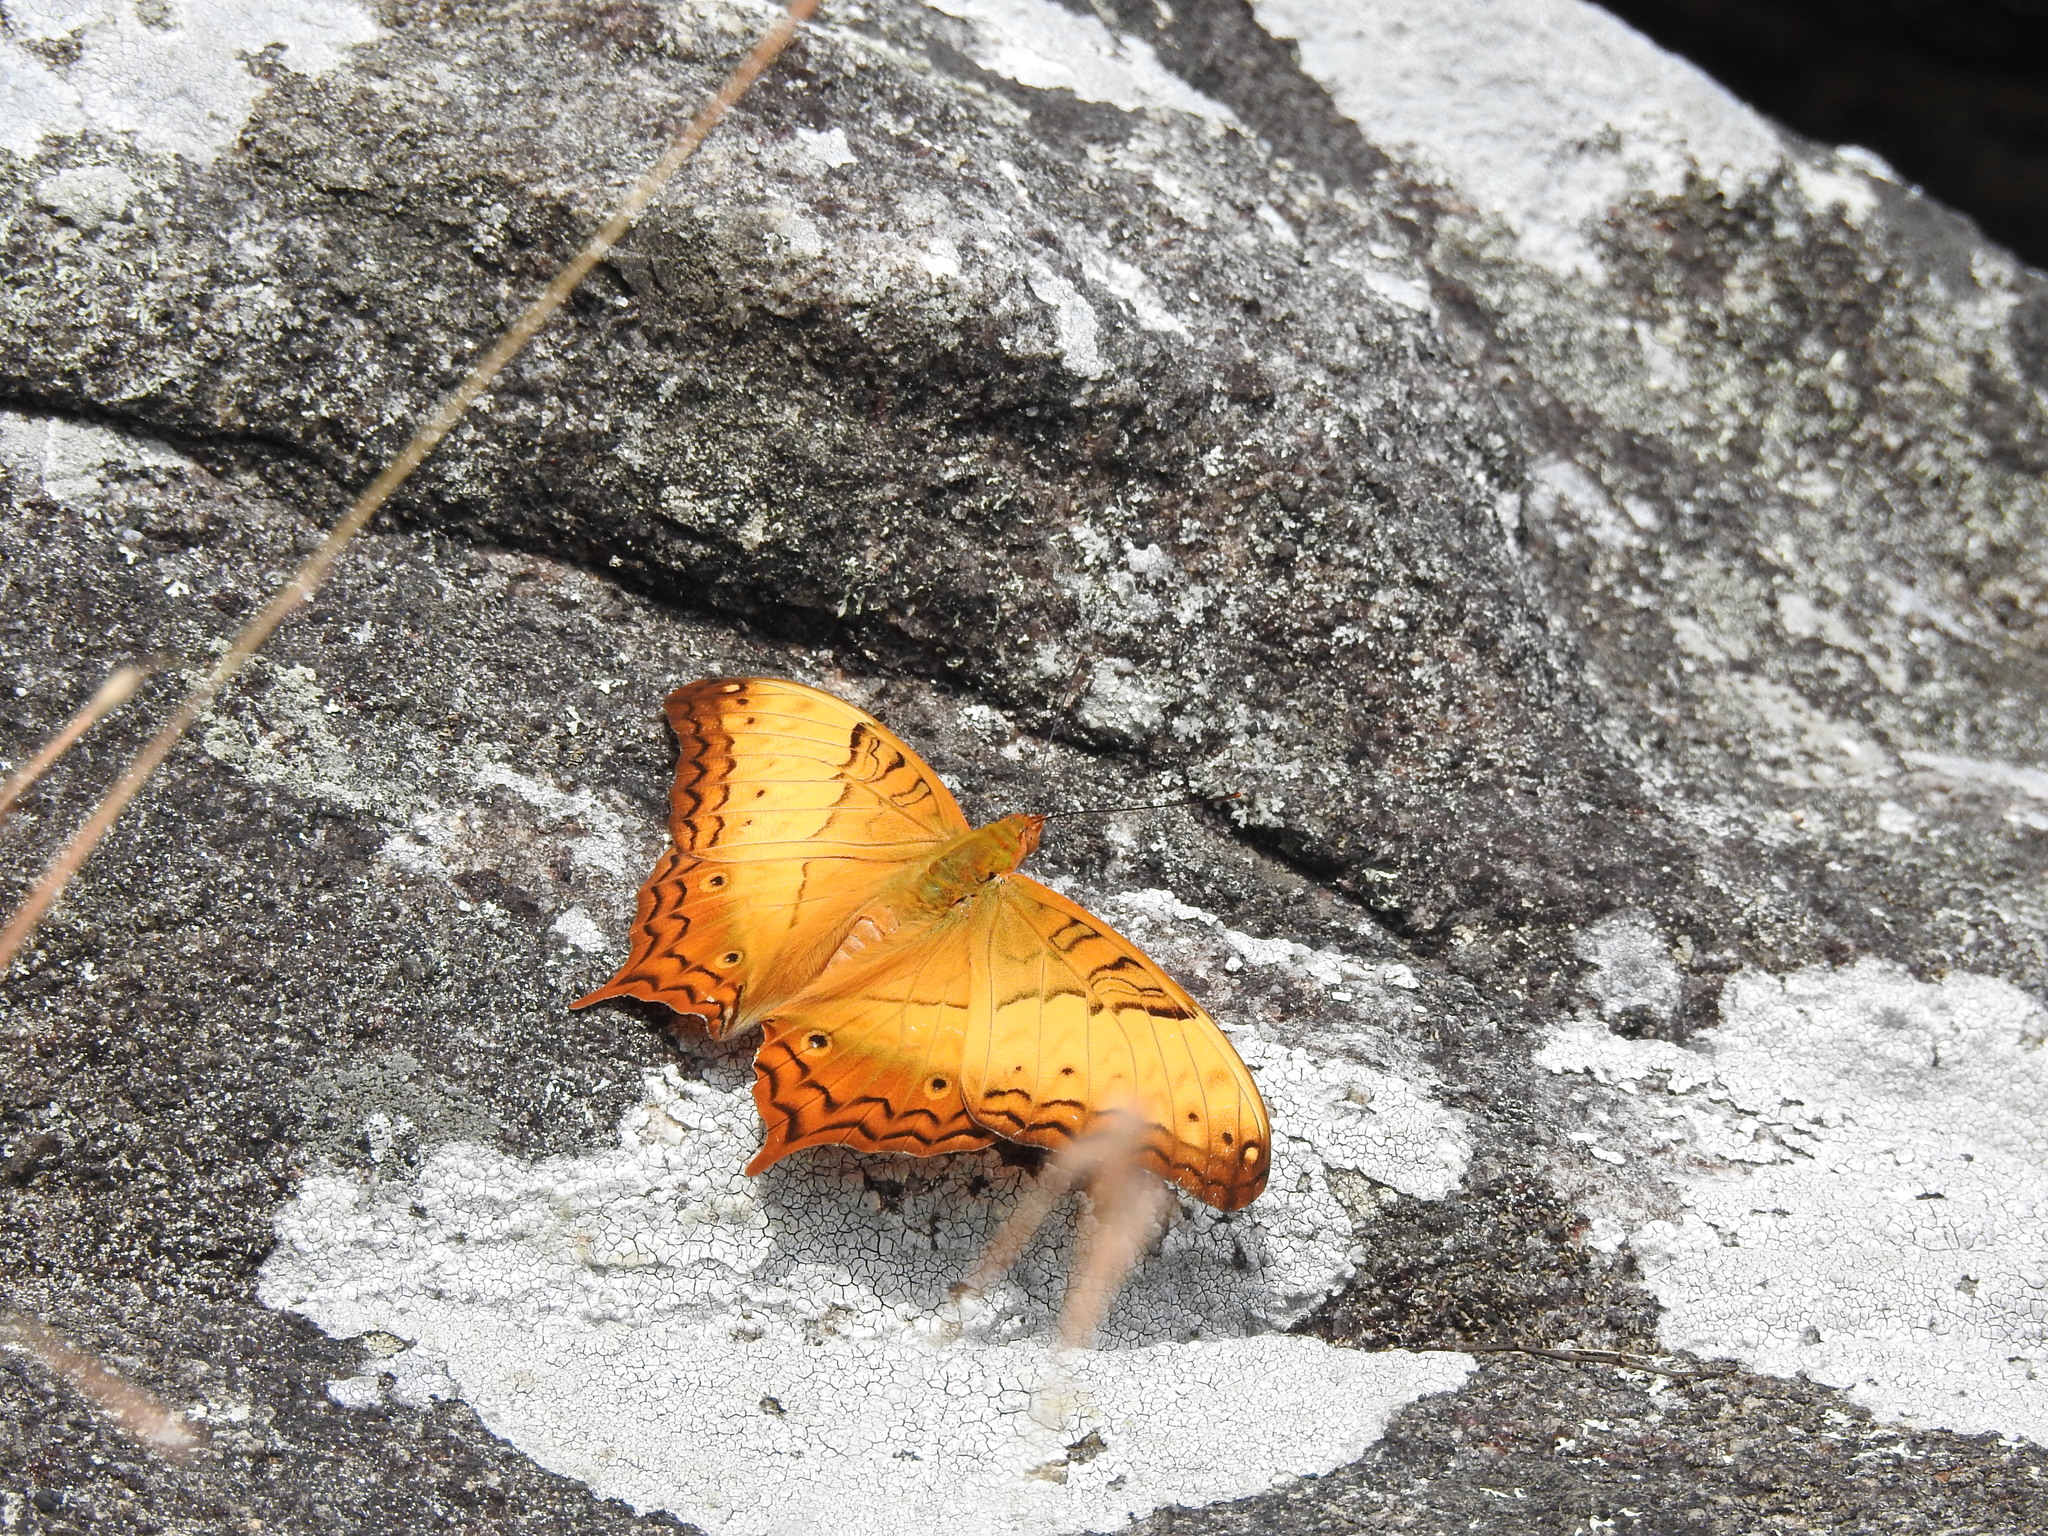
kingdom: Animalia
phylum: Arthropoda
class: Insecta
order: Lepidoptera
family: Nymphalidae
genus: Vindula
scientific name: Vindula erota
